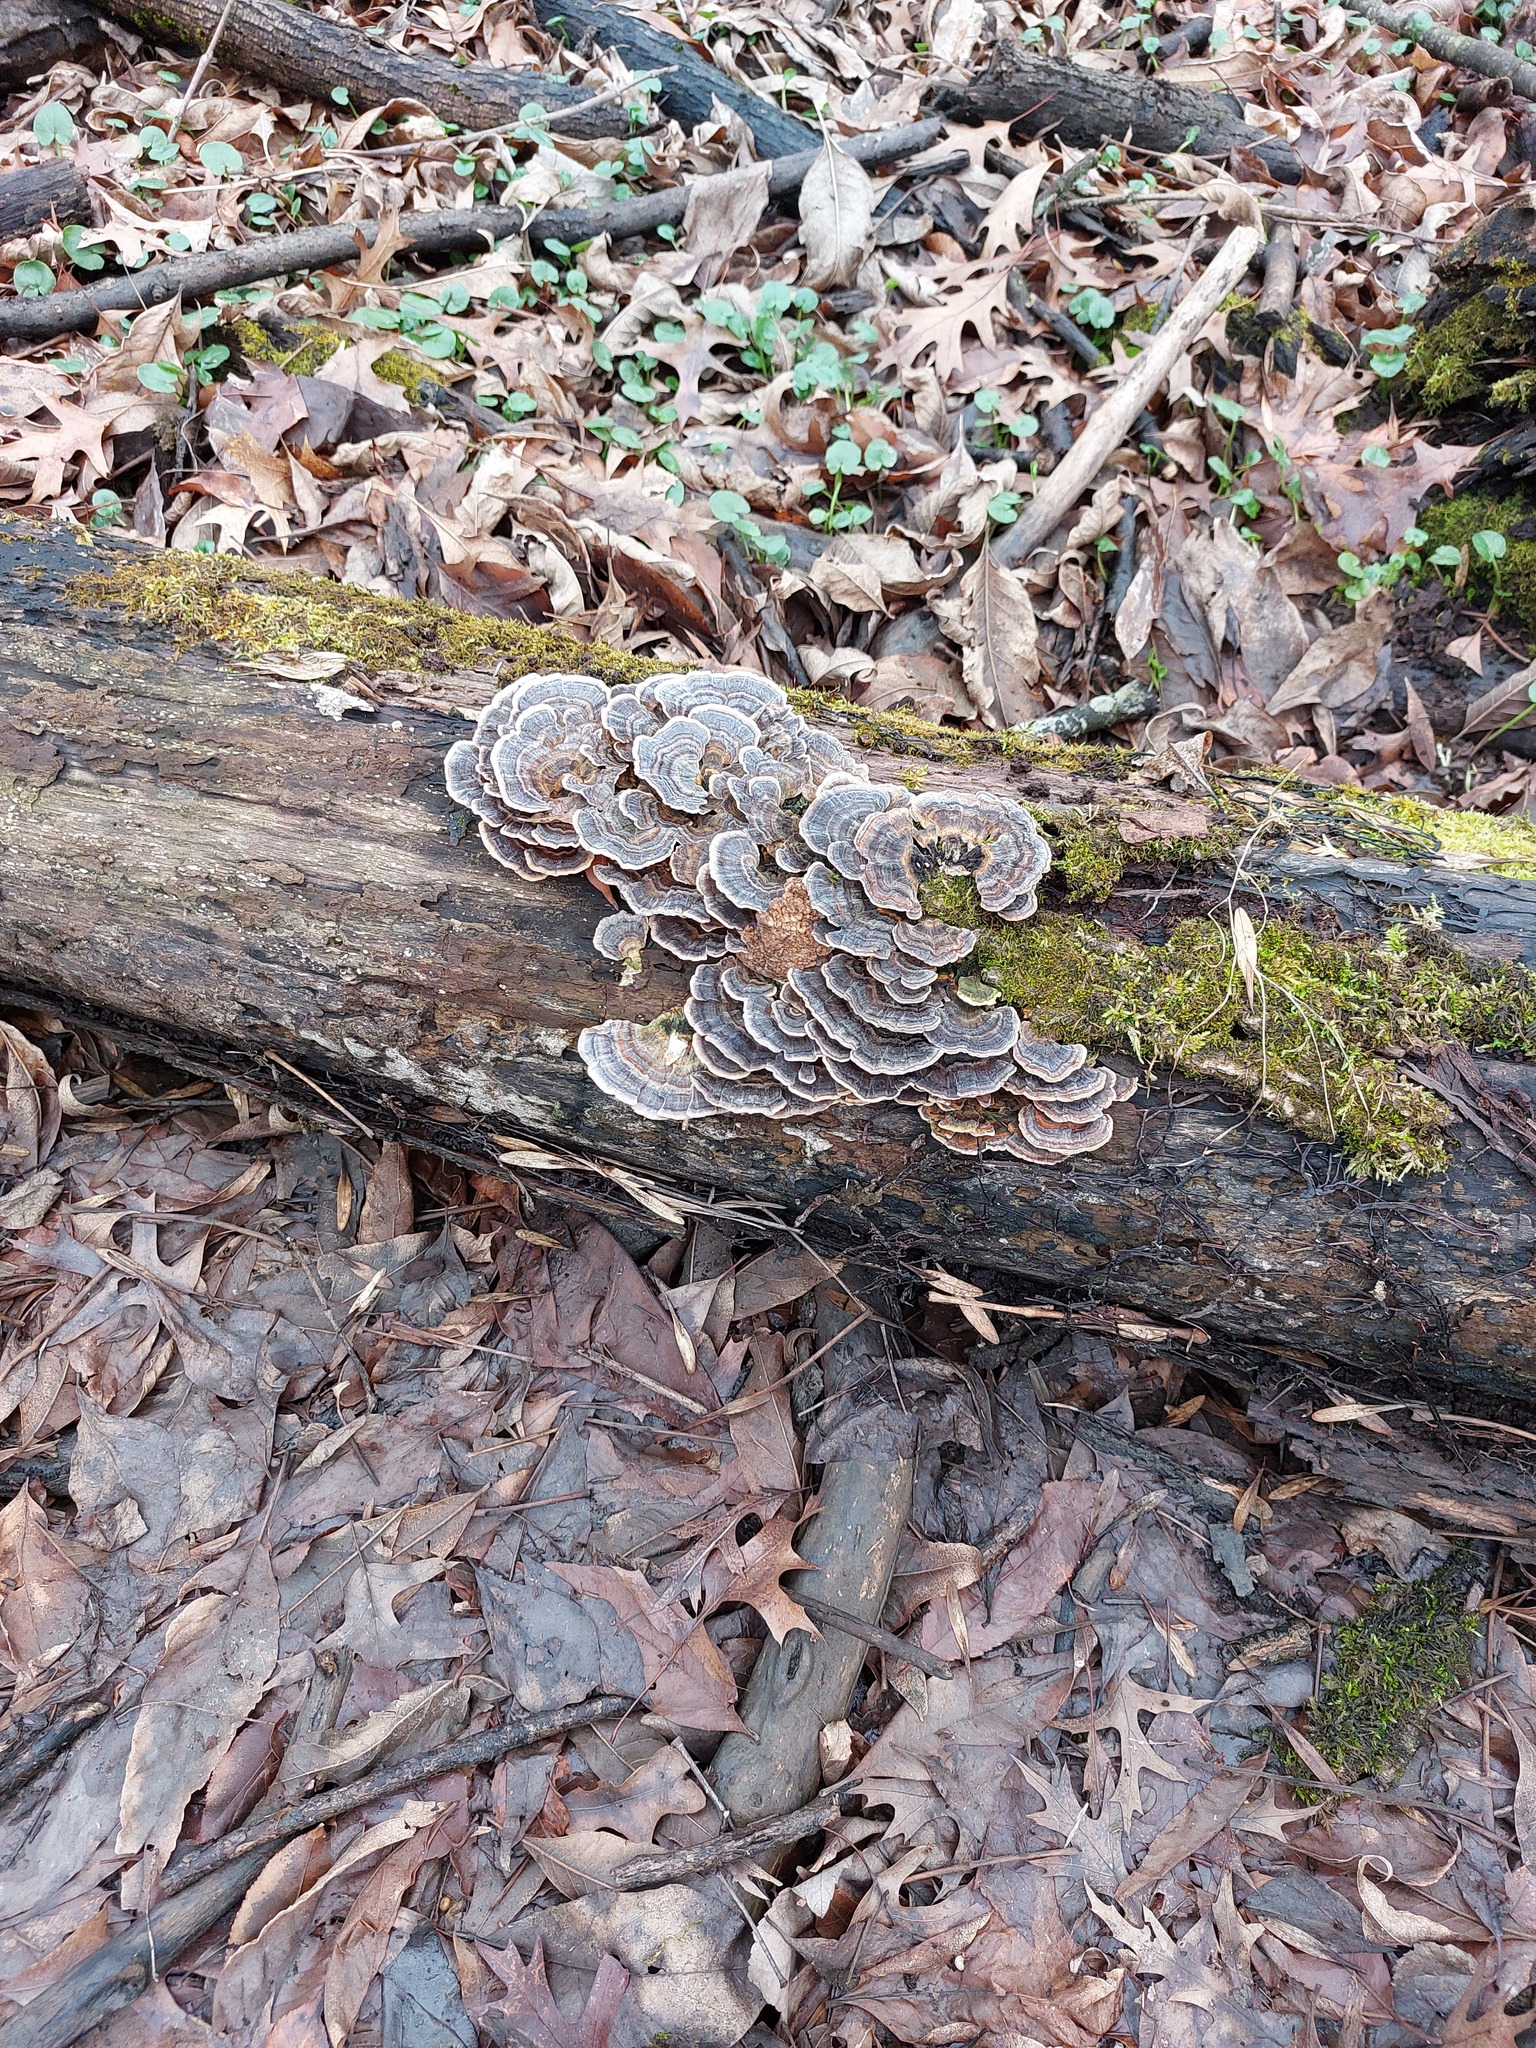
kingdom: Fungi
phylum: Basidiomycota
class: Agaricomycetes
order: Polyporales
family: Polyporaceae
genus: Trametes
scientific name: Trametes versicolor
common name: Turkeytail
